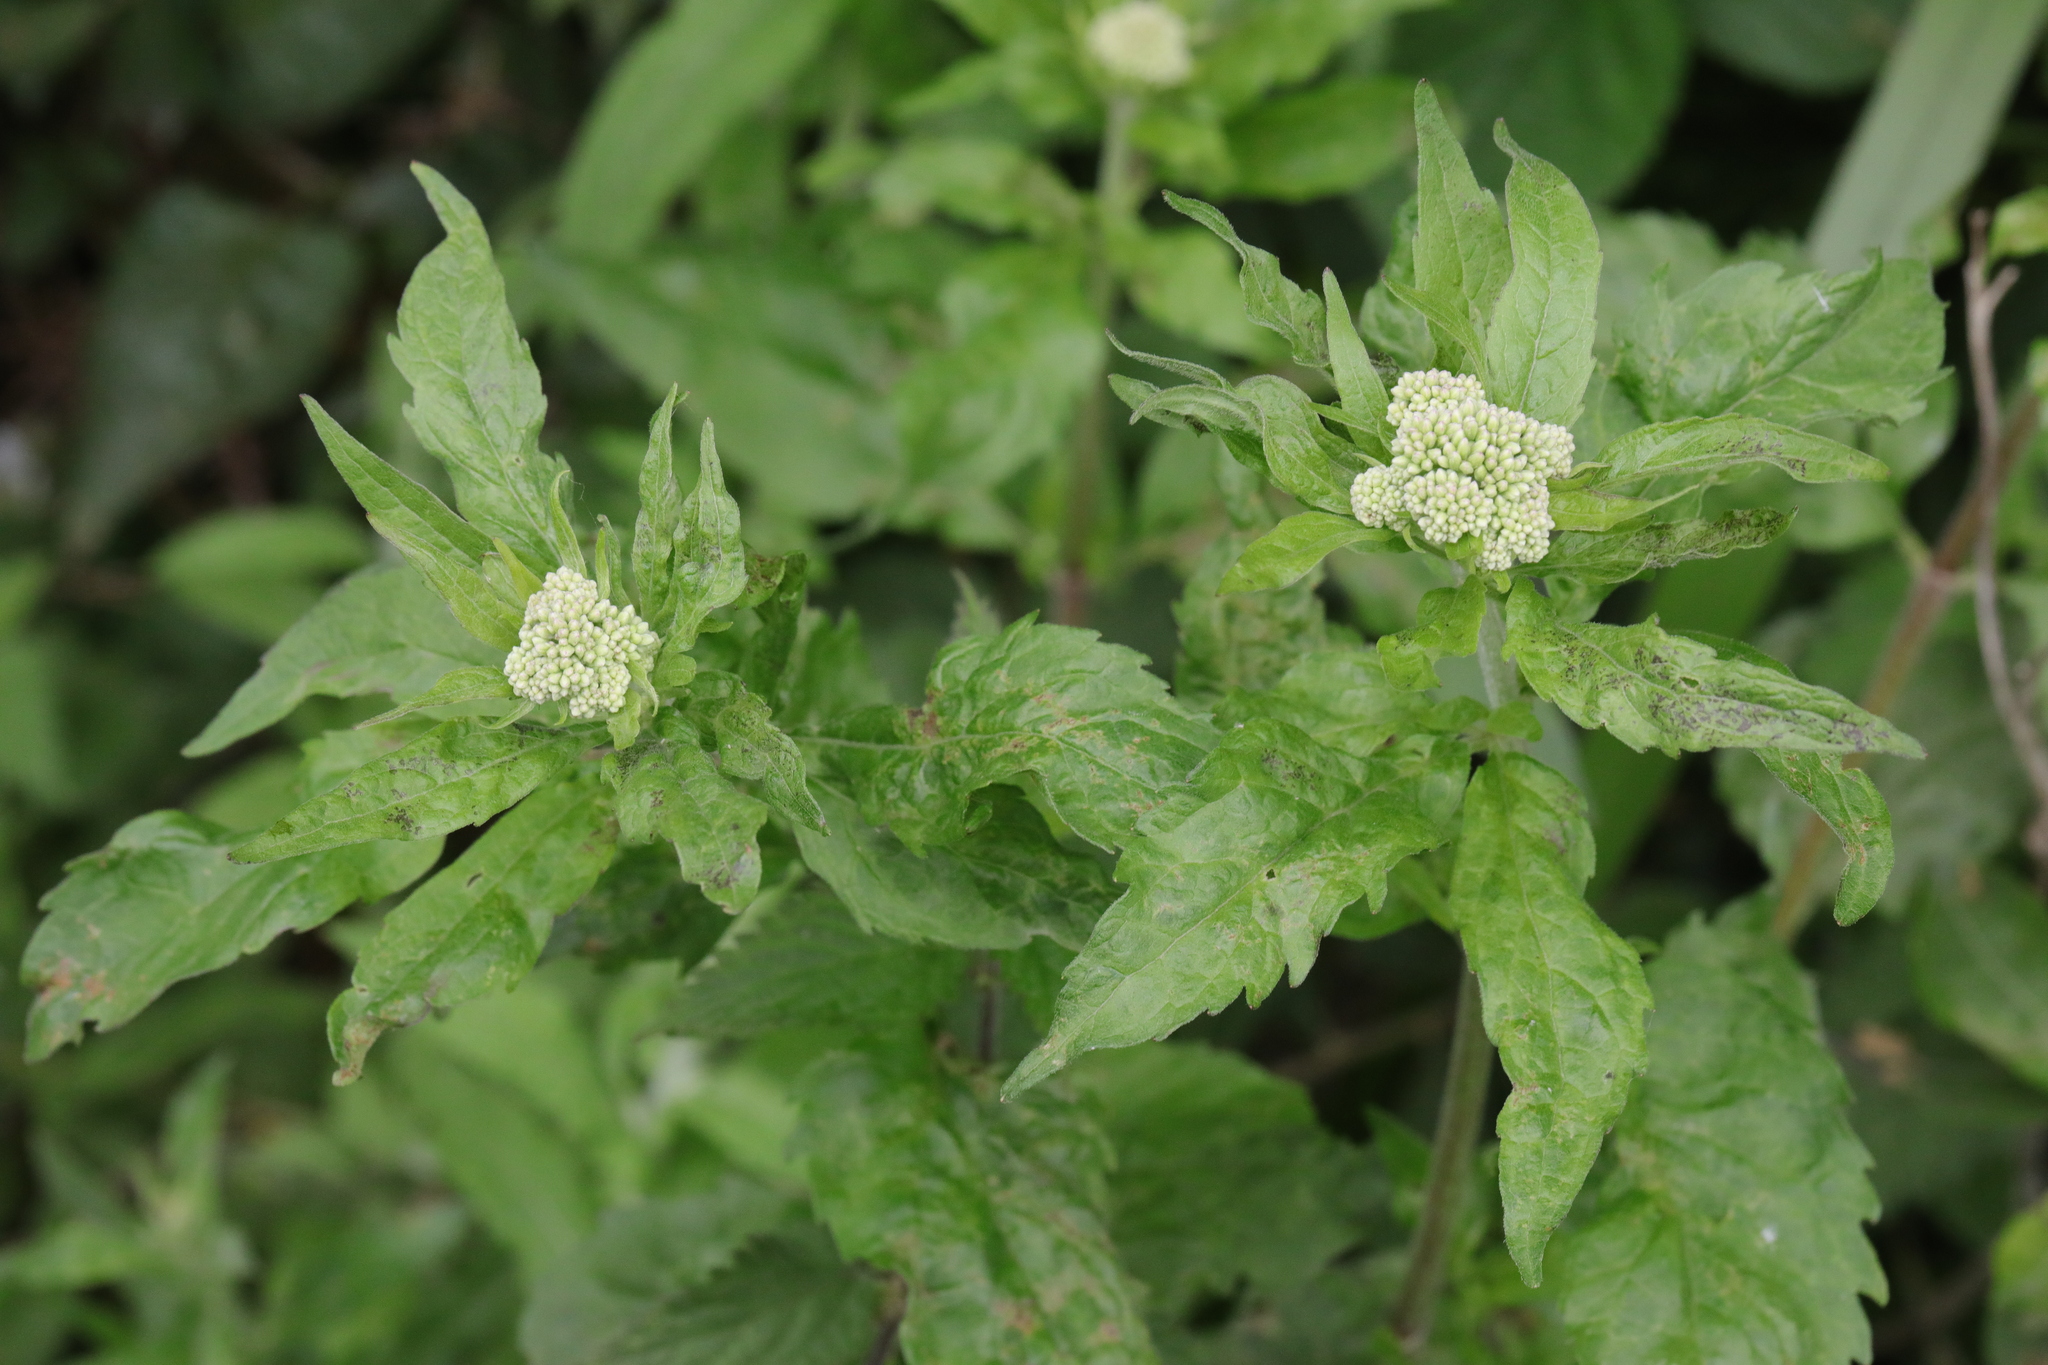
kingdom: Plantae
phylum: Tracheophyta
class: Magnoliopsida
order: Asterales
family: Asteraceae
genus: Eupatorium
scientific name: Eupatorium cannabinum
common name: Hemp-agrimony
